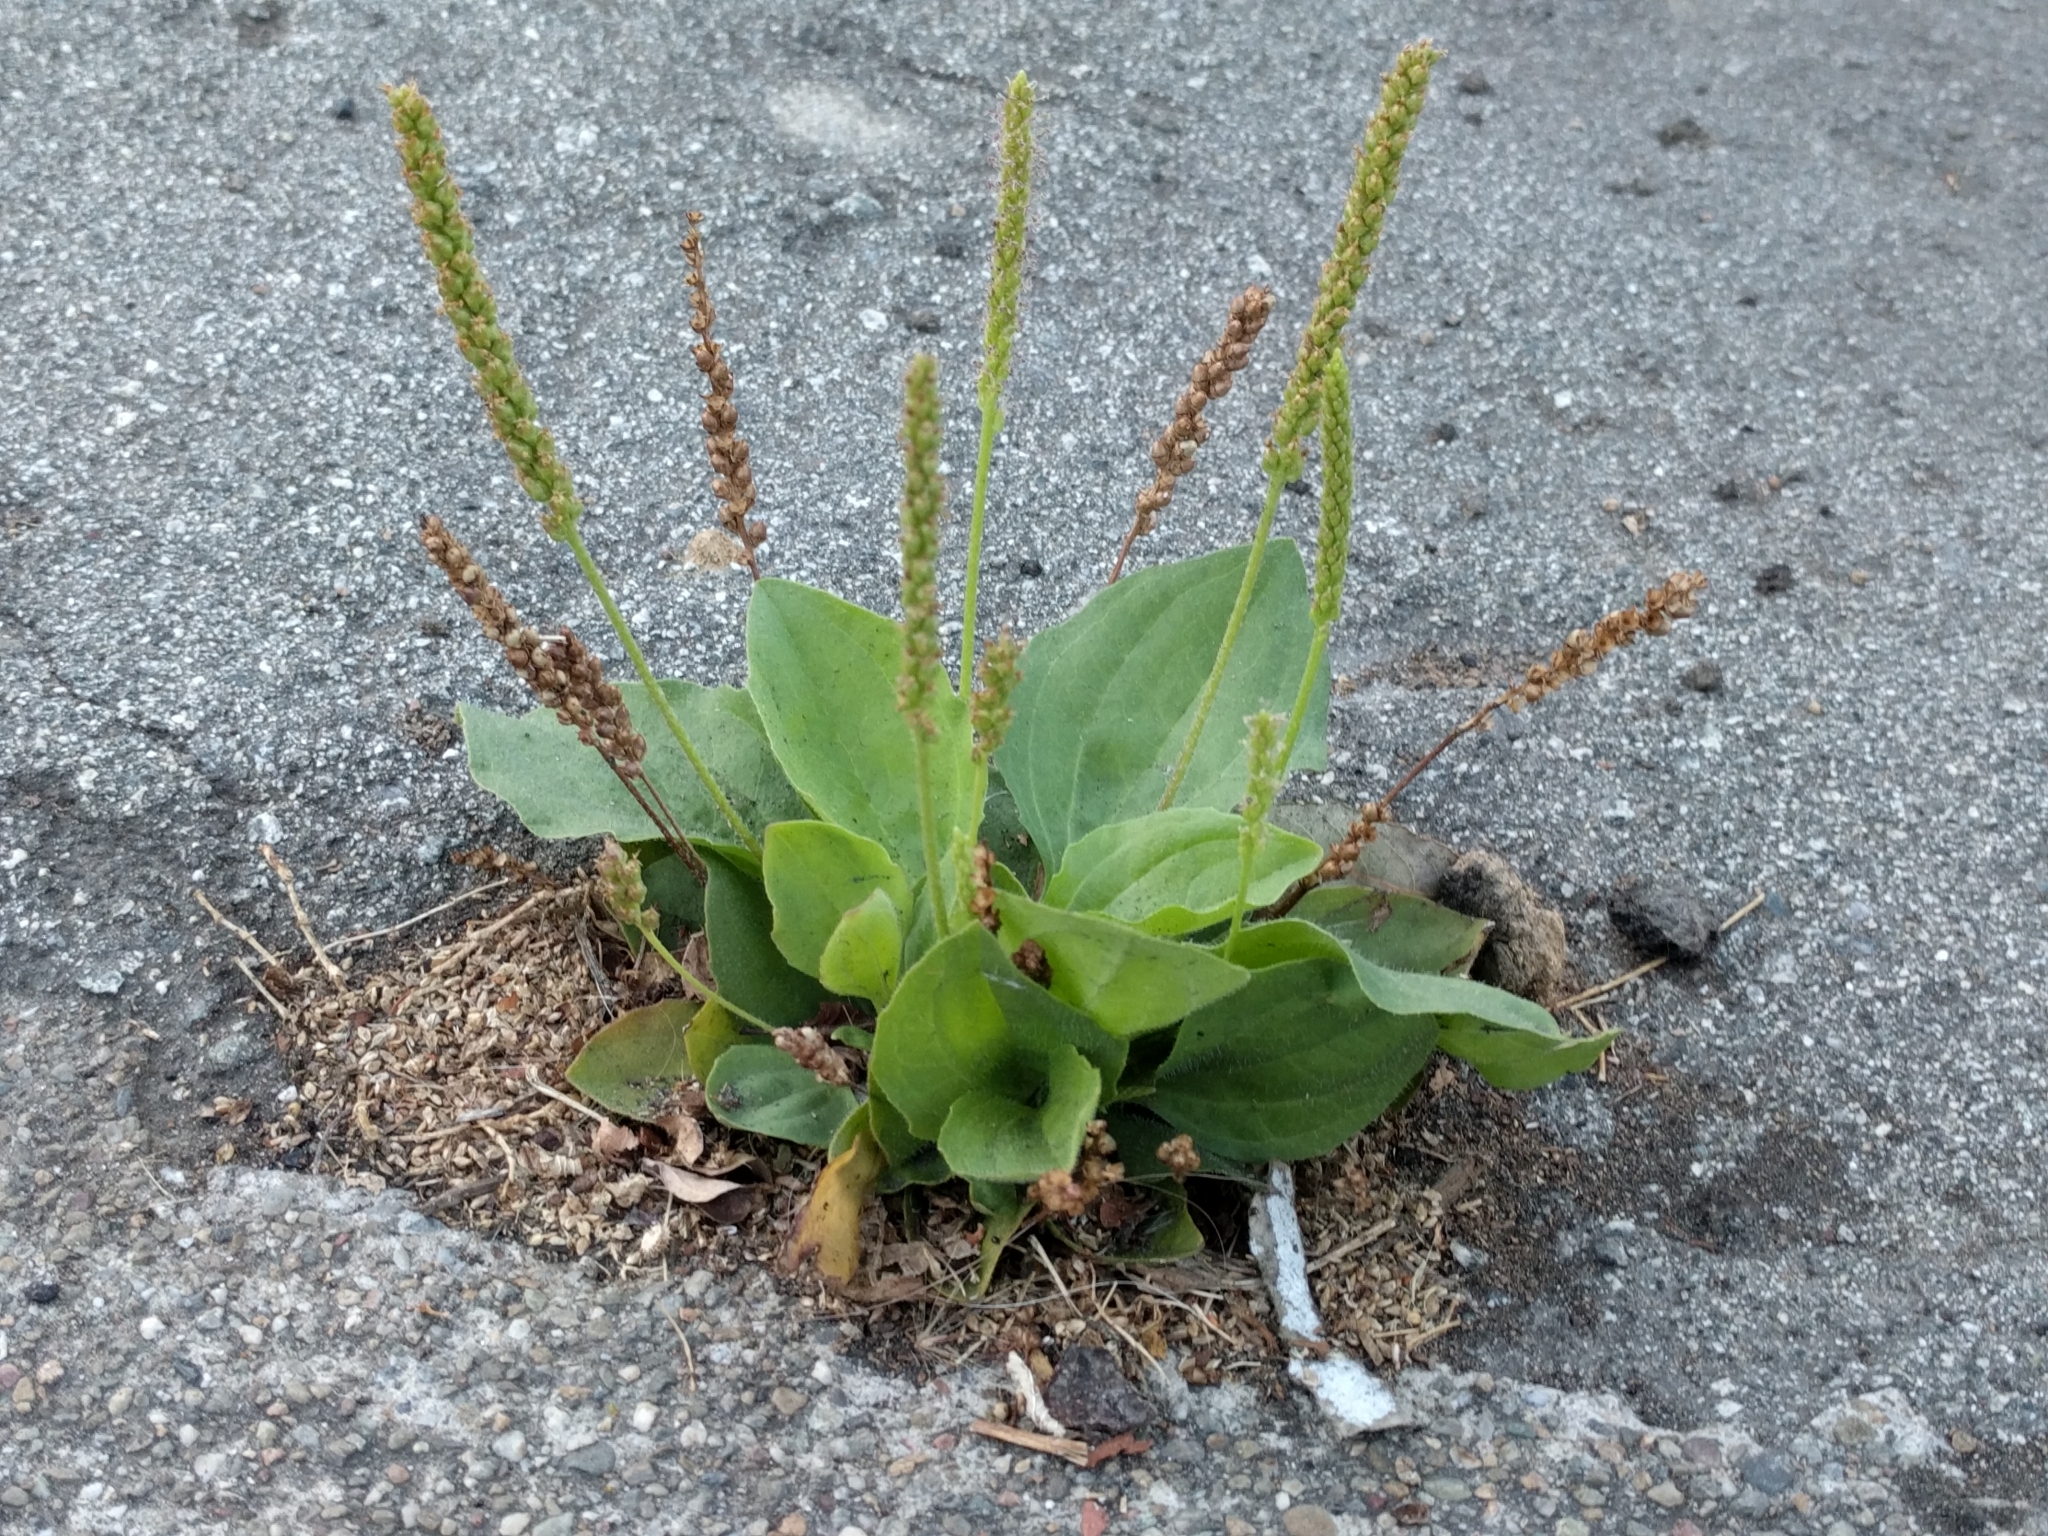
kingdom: Plantae
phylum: Tracheophyta
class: Magnoliopsida
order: Lamiales
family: Plantaginaceae
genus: Plantago
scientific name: Plantago major
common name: Common plantain
